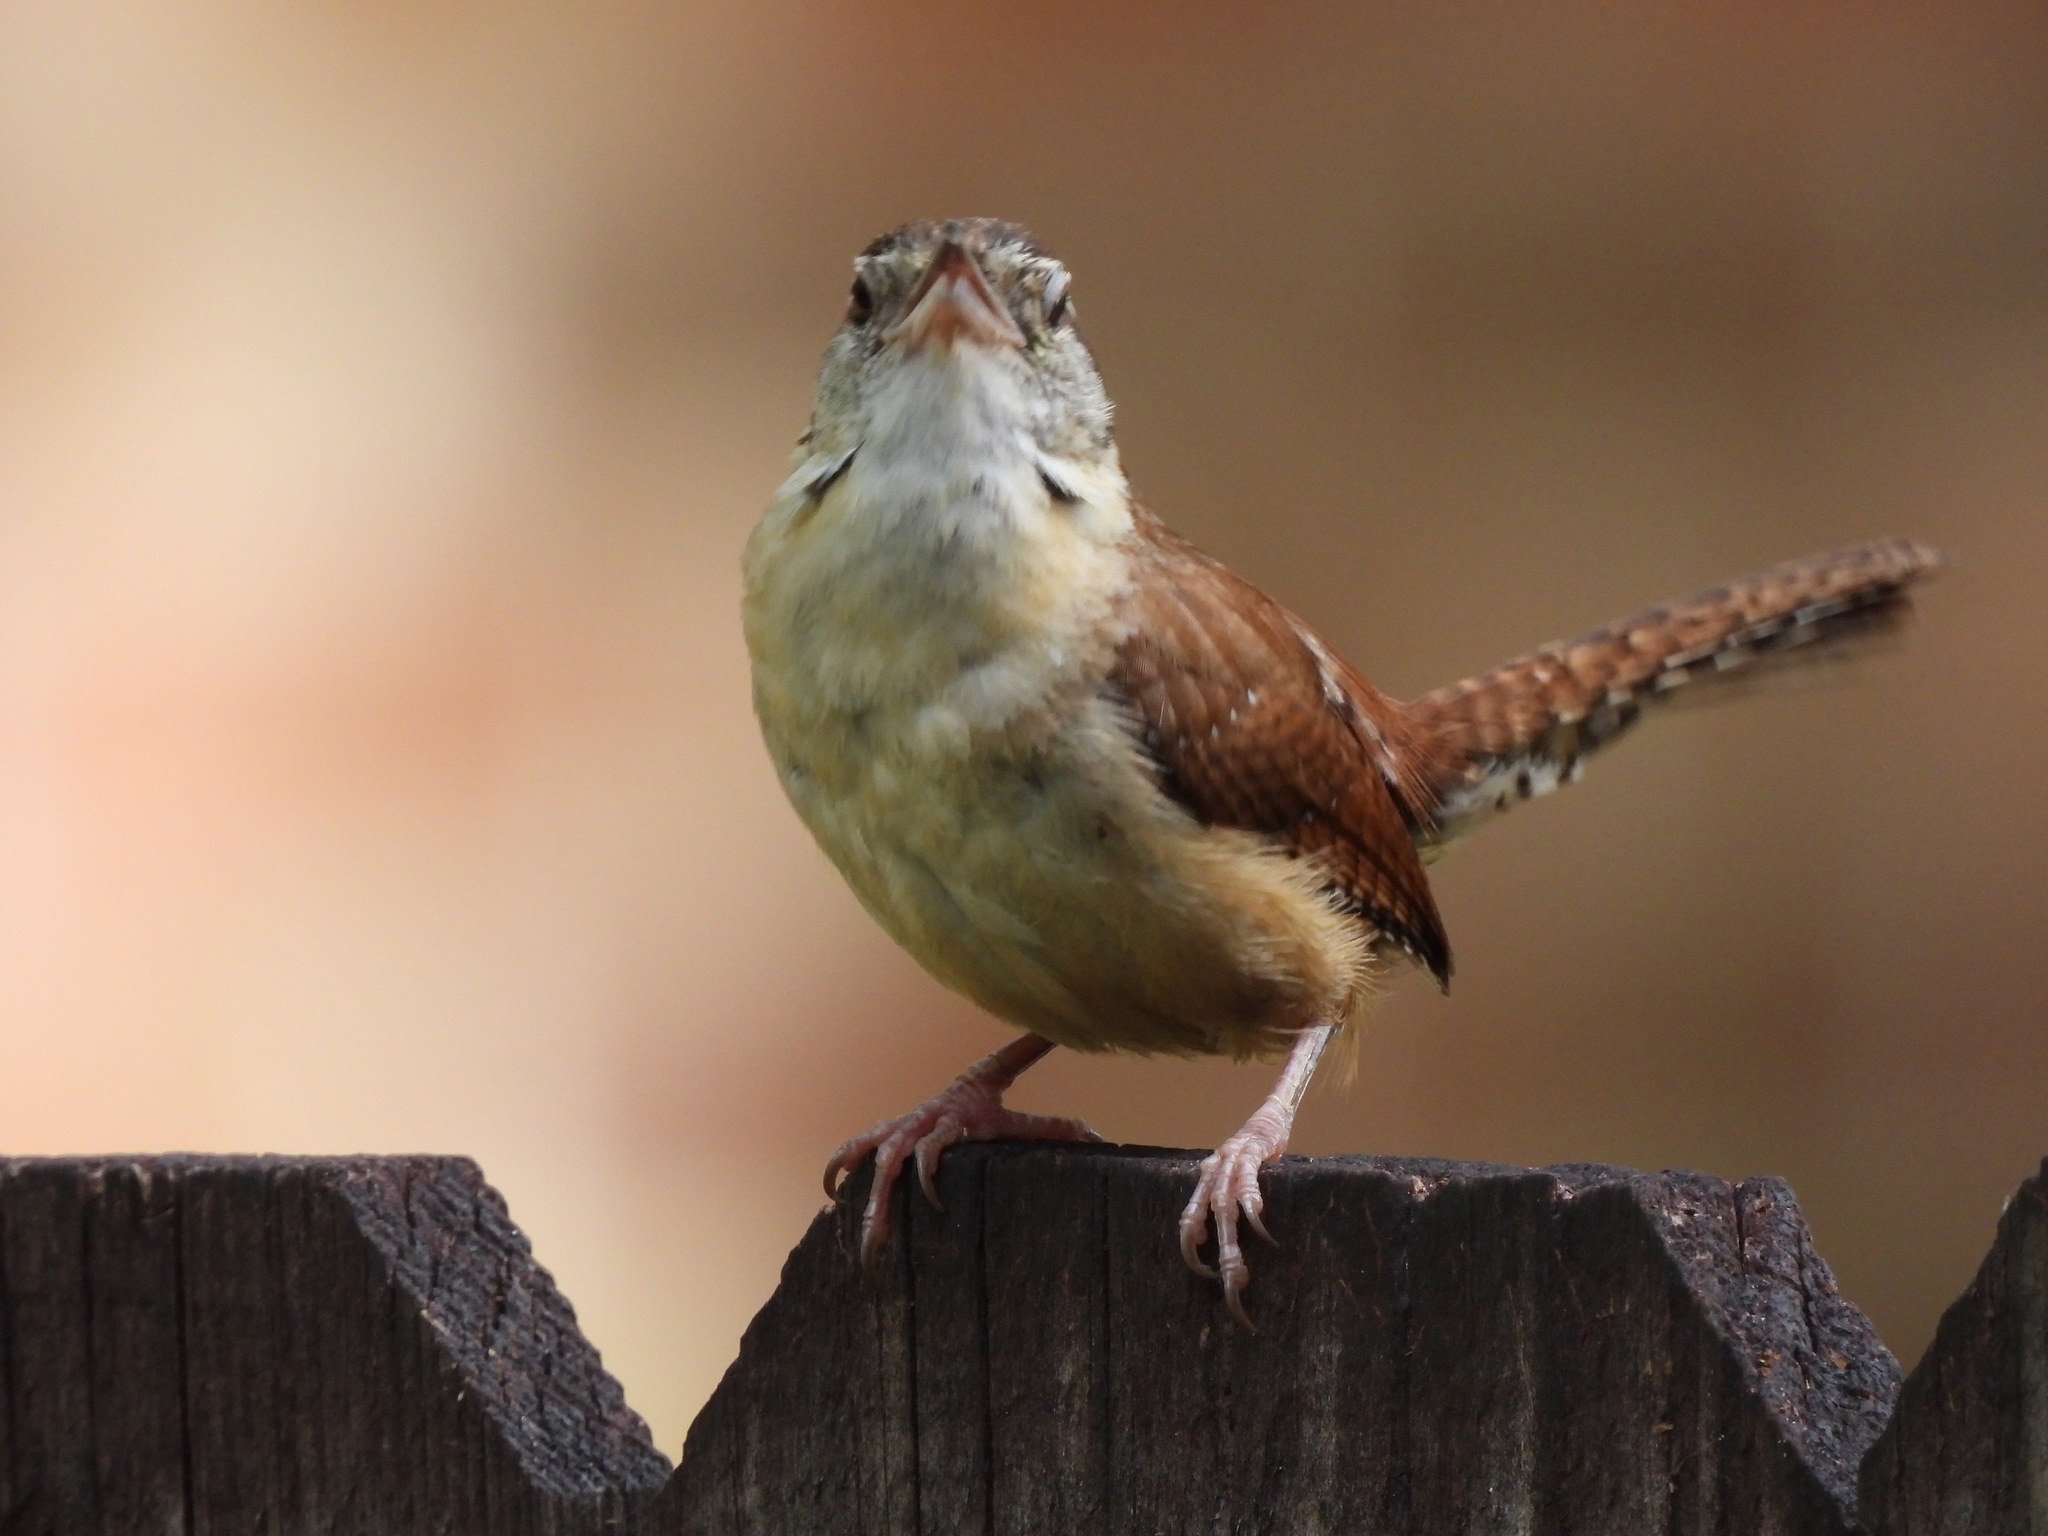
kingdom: Animalia
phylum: Chordata
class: Aves
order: Passeriformes
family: Troglodytidae
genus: Thryothorus
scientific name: Thryothorus ludovicianus
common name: Carolina wren
